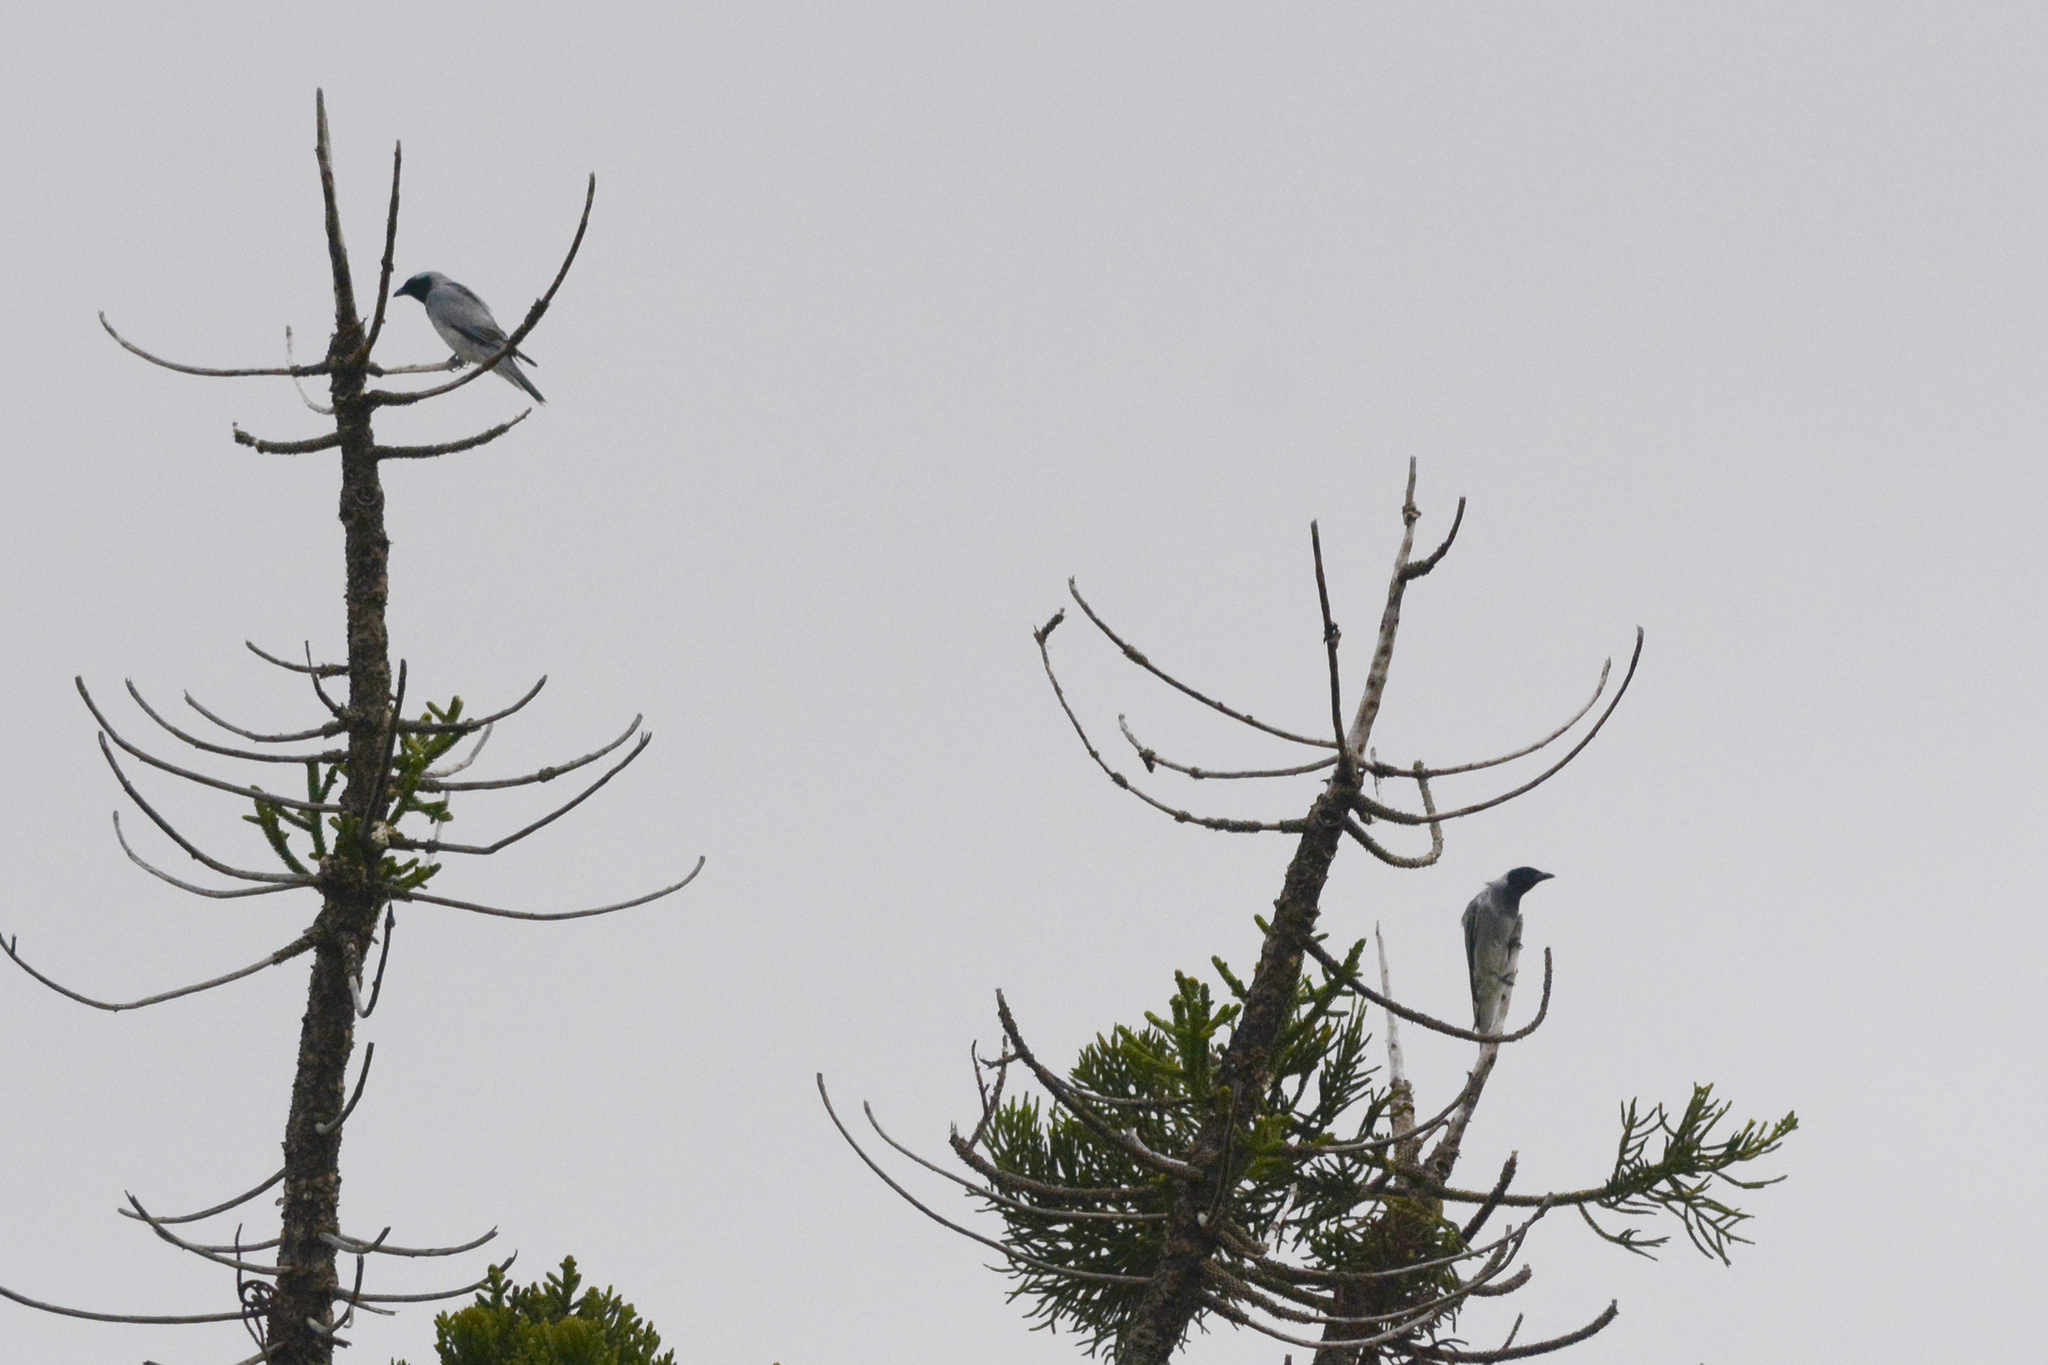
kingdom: Animalia
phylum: Chordata
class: Aves
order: Passeriformes
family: Campephagidae
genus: Coracina
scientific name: Coracina novaehollandiae
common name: Black-faced cuckooshrike
